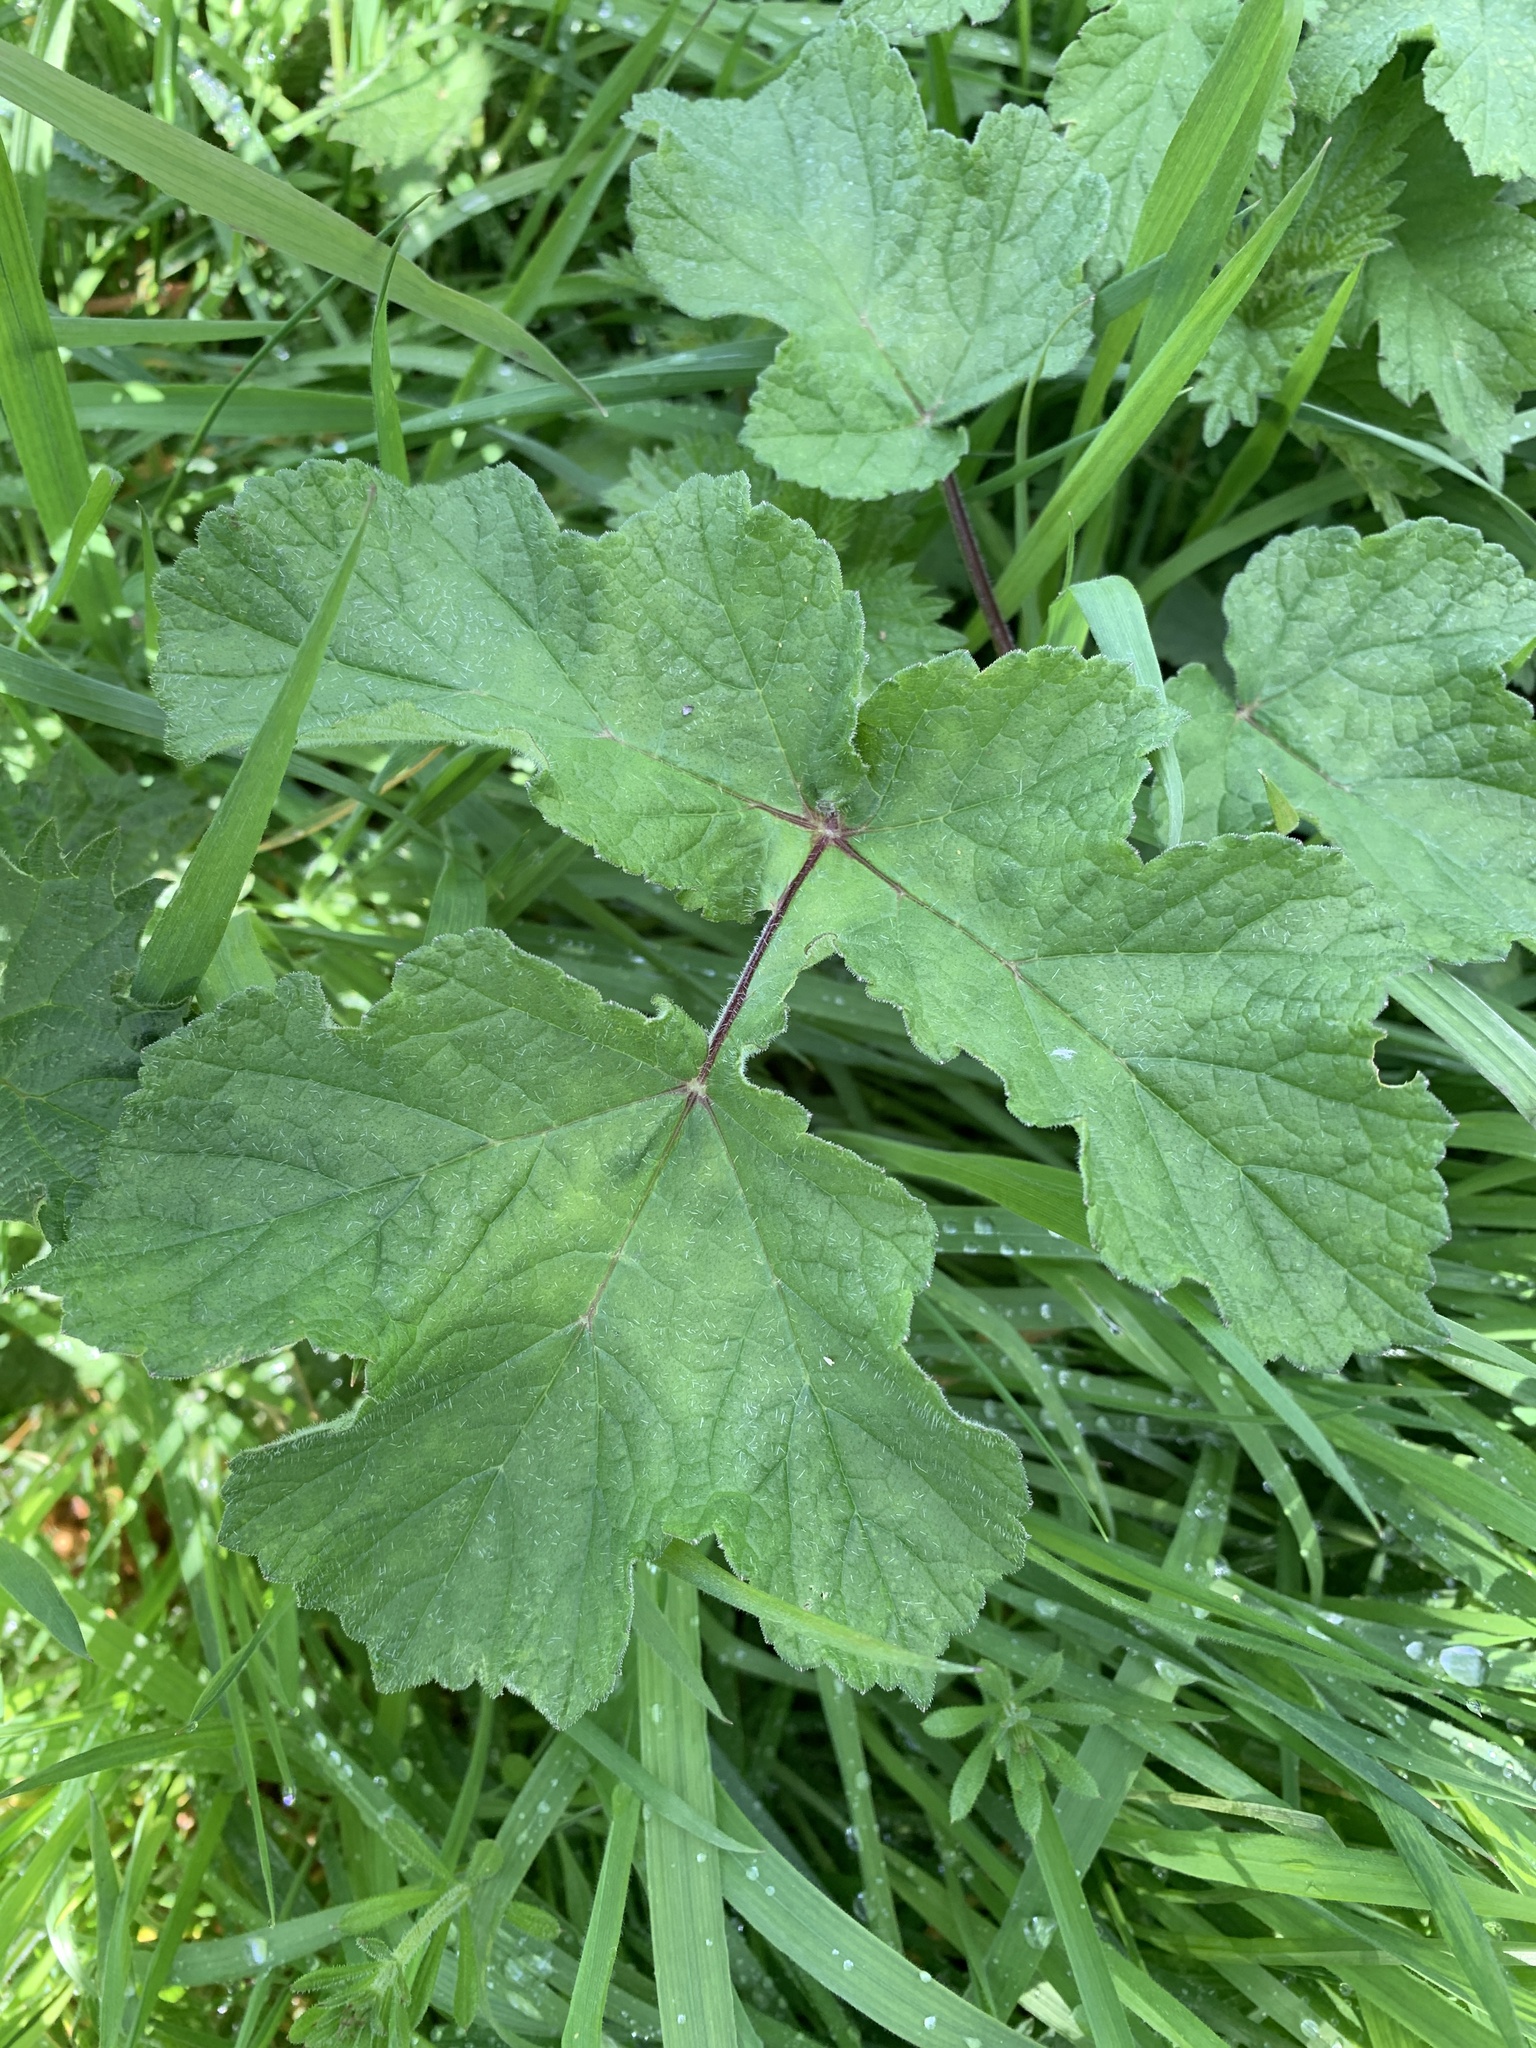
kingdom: Plantae
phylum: Tracheophyta
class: Magnoliopsida
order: Apiales
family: Apiaceae
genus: Heracleum
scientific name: Heracleum sphondylium
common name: Hogweed
